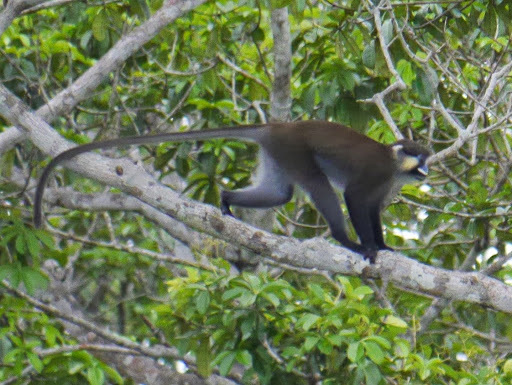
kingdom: Animalia
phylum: Chordata
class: Mammalia
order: Primates
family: Cercopithecidae
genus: Cercopithecus
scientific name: Cercopithecus cephus
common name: Moustached guenon
